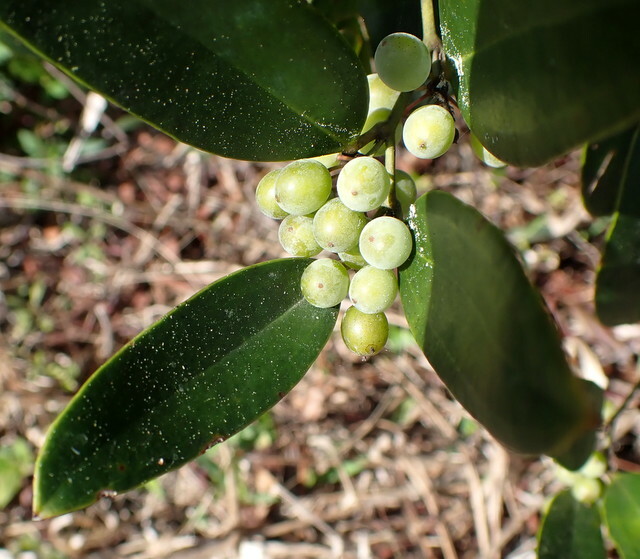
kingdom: Plantae
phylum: Tracheophyta
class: Liliopsida
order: Liliales
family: Smilacaceae
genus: Smilax
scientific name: Smilax laurifolia
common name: Bamboovine
